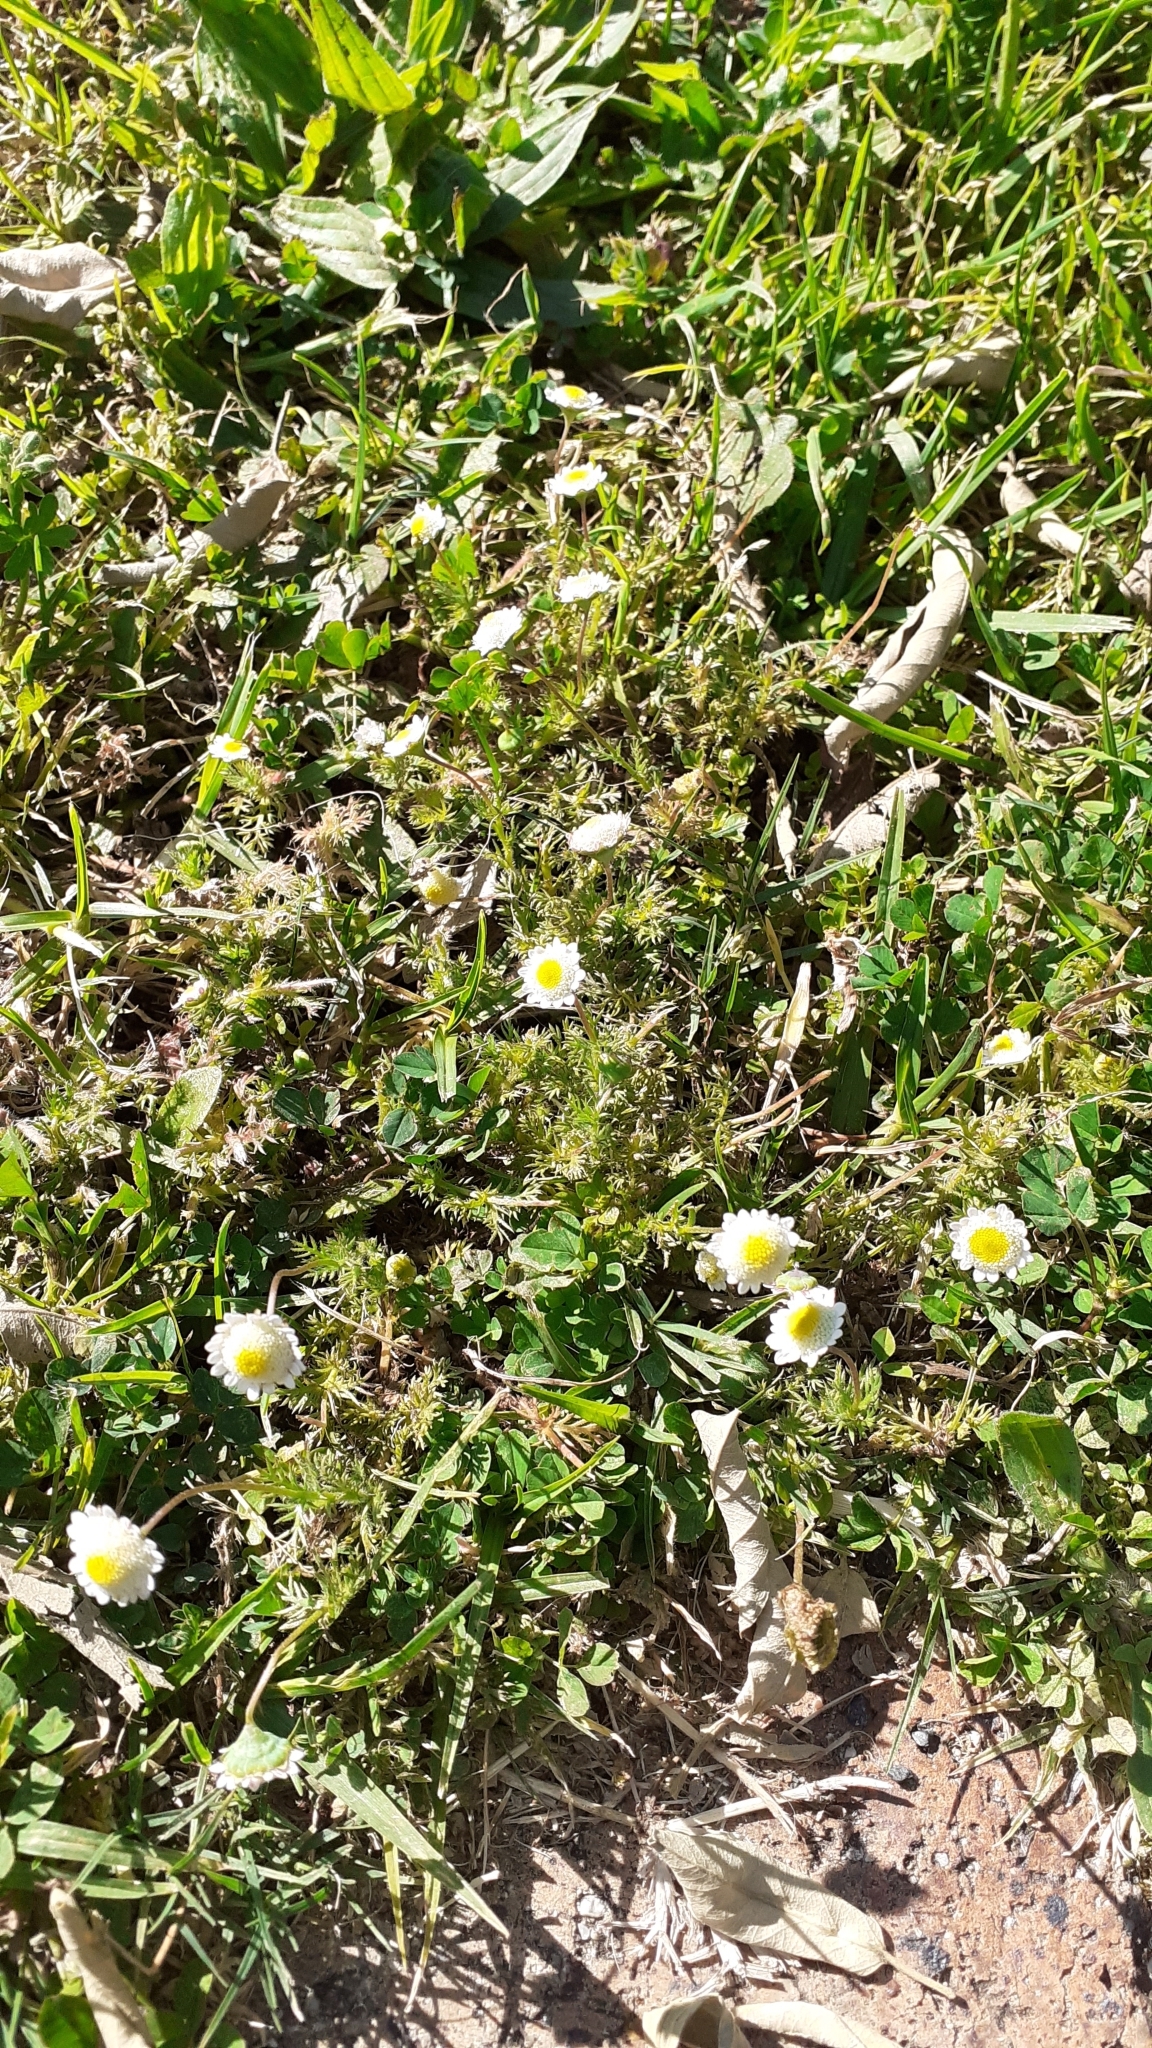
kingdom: Plantae
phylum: Tracheophyta
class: Magnoliopsida
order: Asterales
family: Asteraceae
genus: Cotula
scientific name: Cotula turbinata
